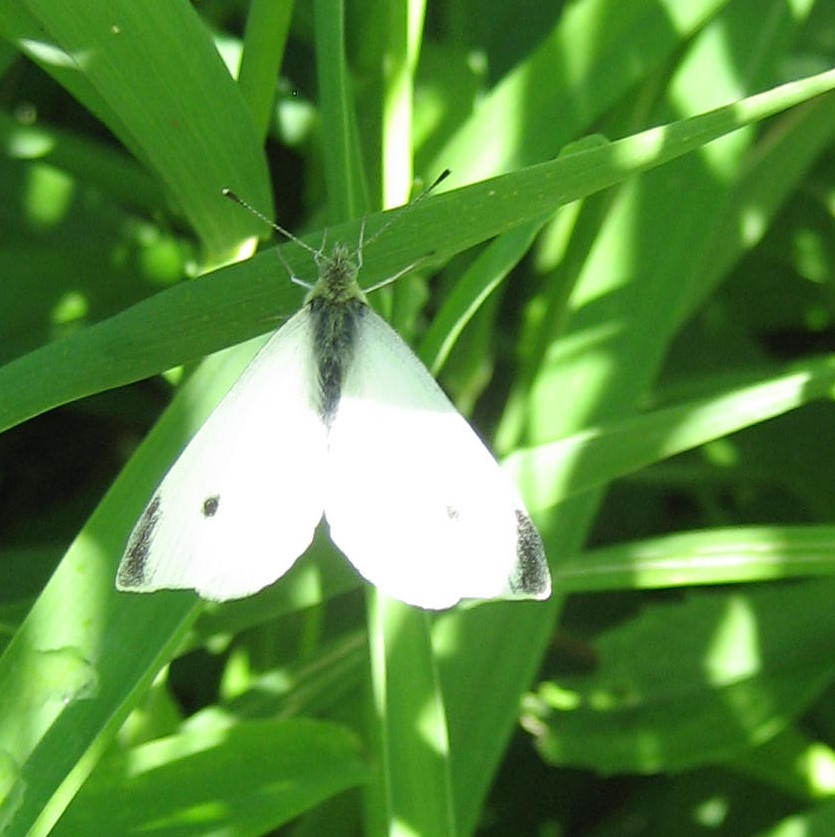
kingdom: Animalia
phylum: Arthropoda
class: Insecta
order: Lepidoptera
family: Pieridae
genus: Pieris
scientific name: Pieris rapae
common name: Small white
